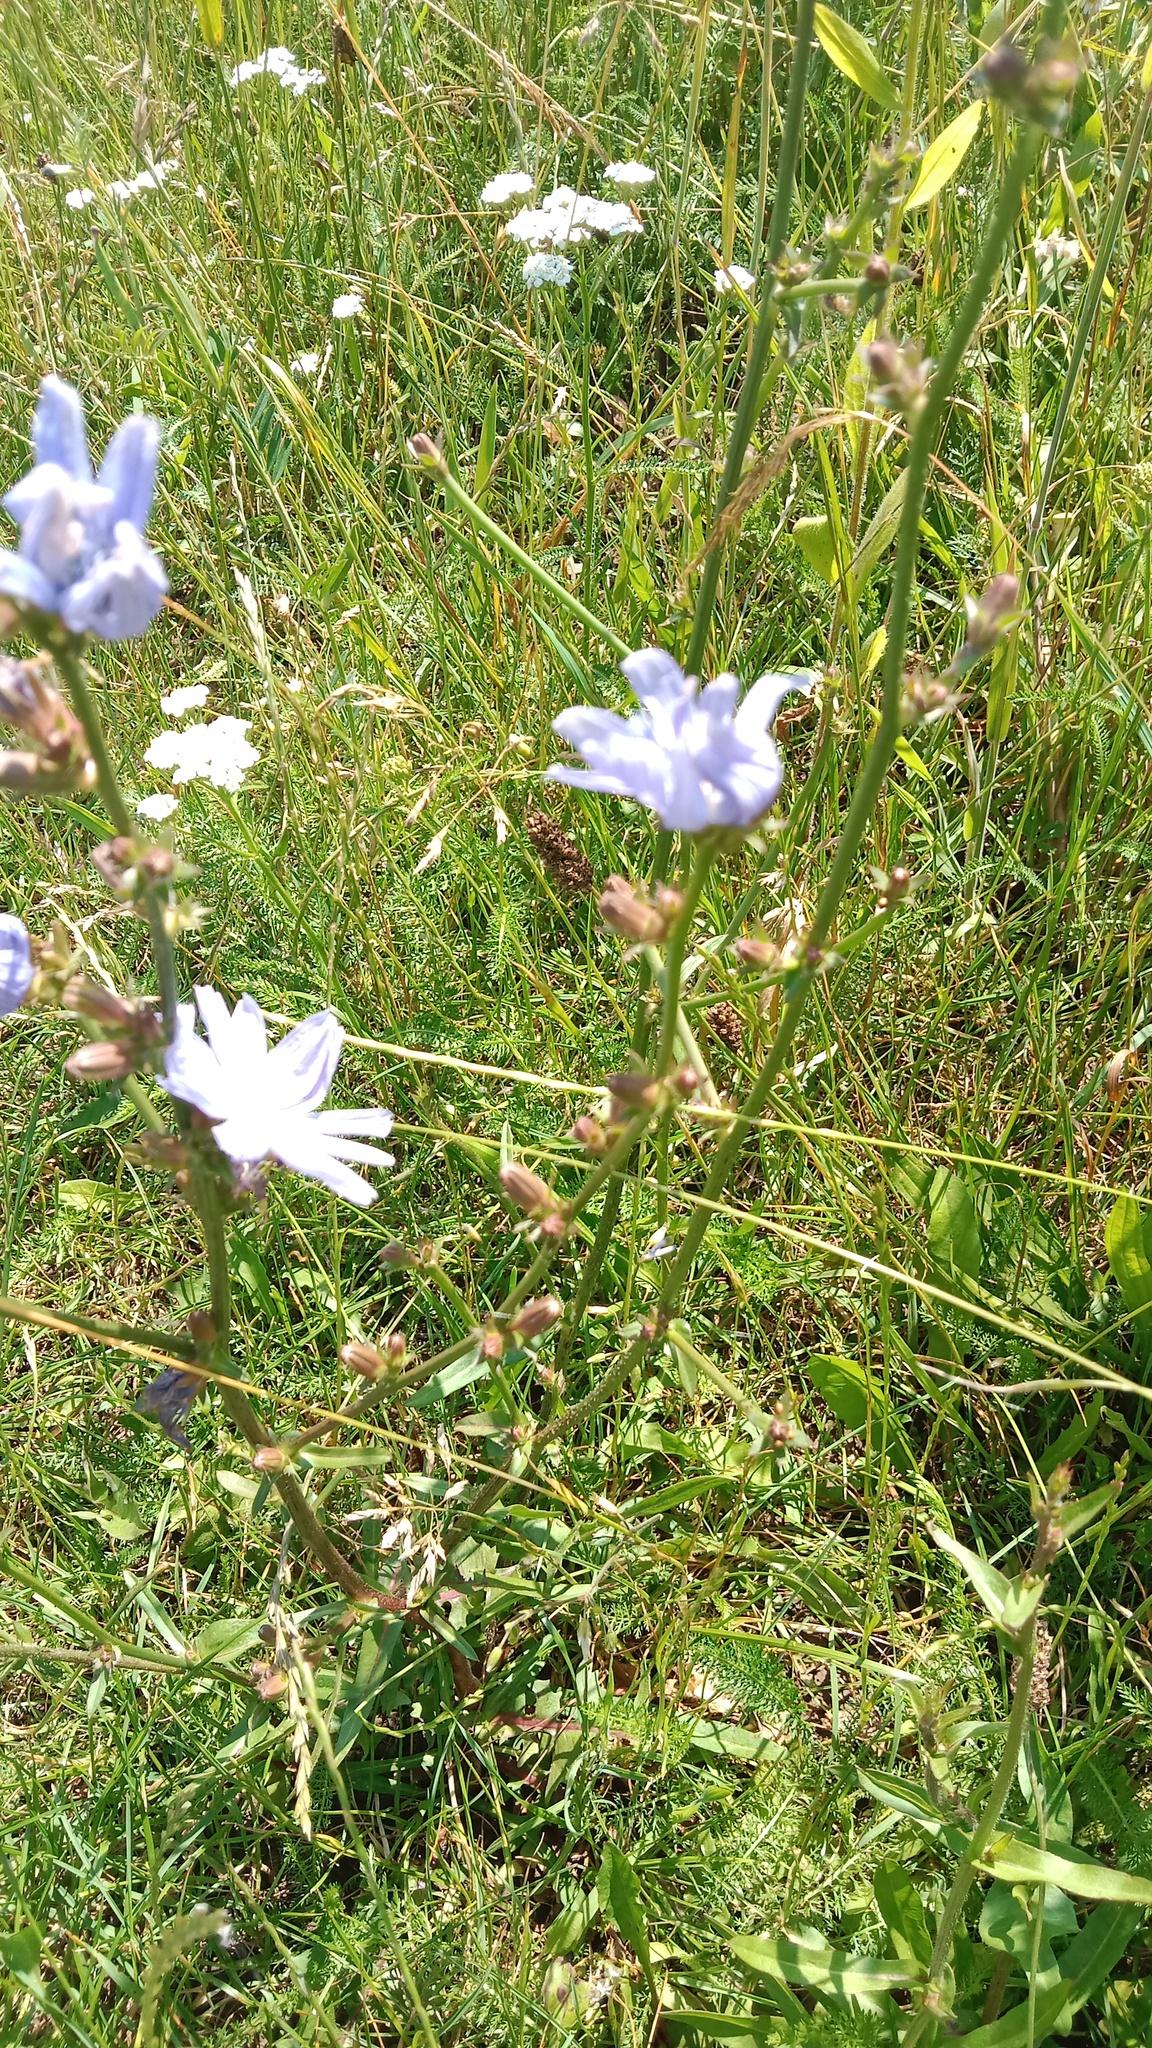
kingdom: Plantae
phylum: Tracheophyta
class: Magnoliopsida
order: Asterales
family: Asteraceae
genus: Cichorium
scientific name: Cichorium intybus
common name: Chicory
